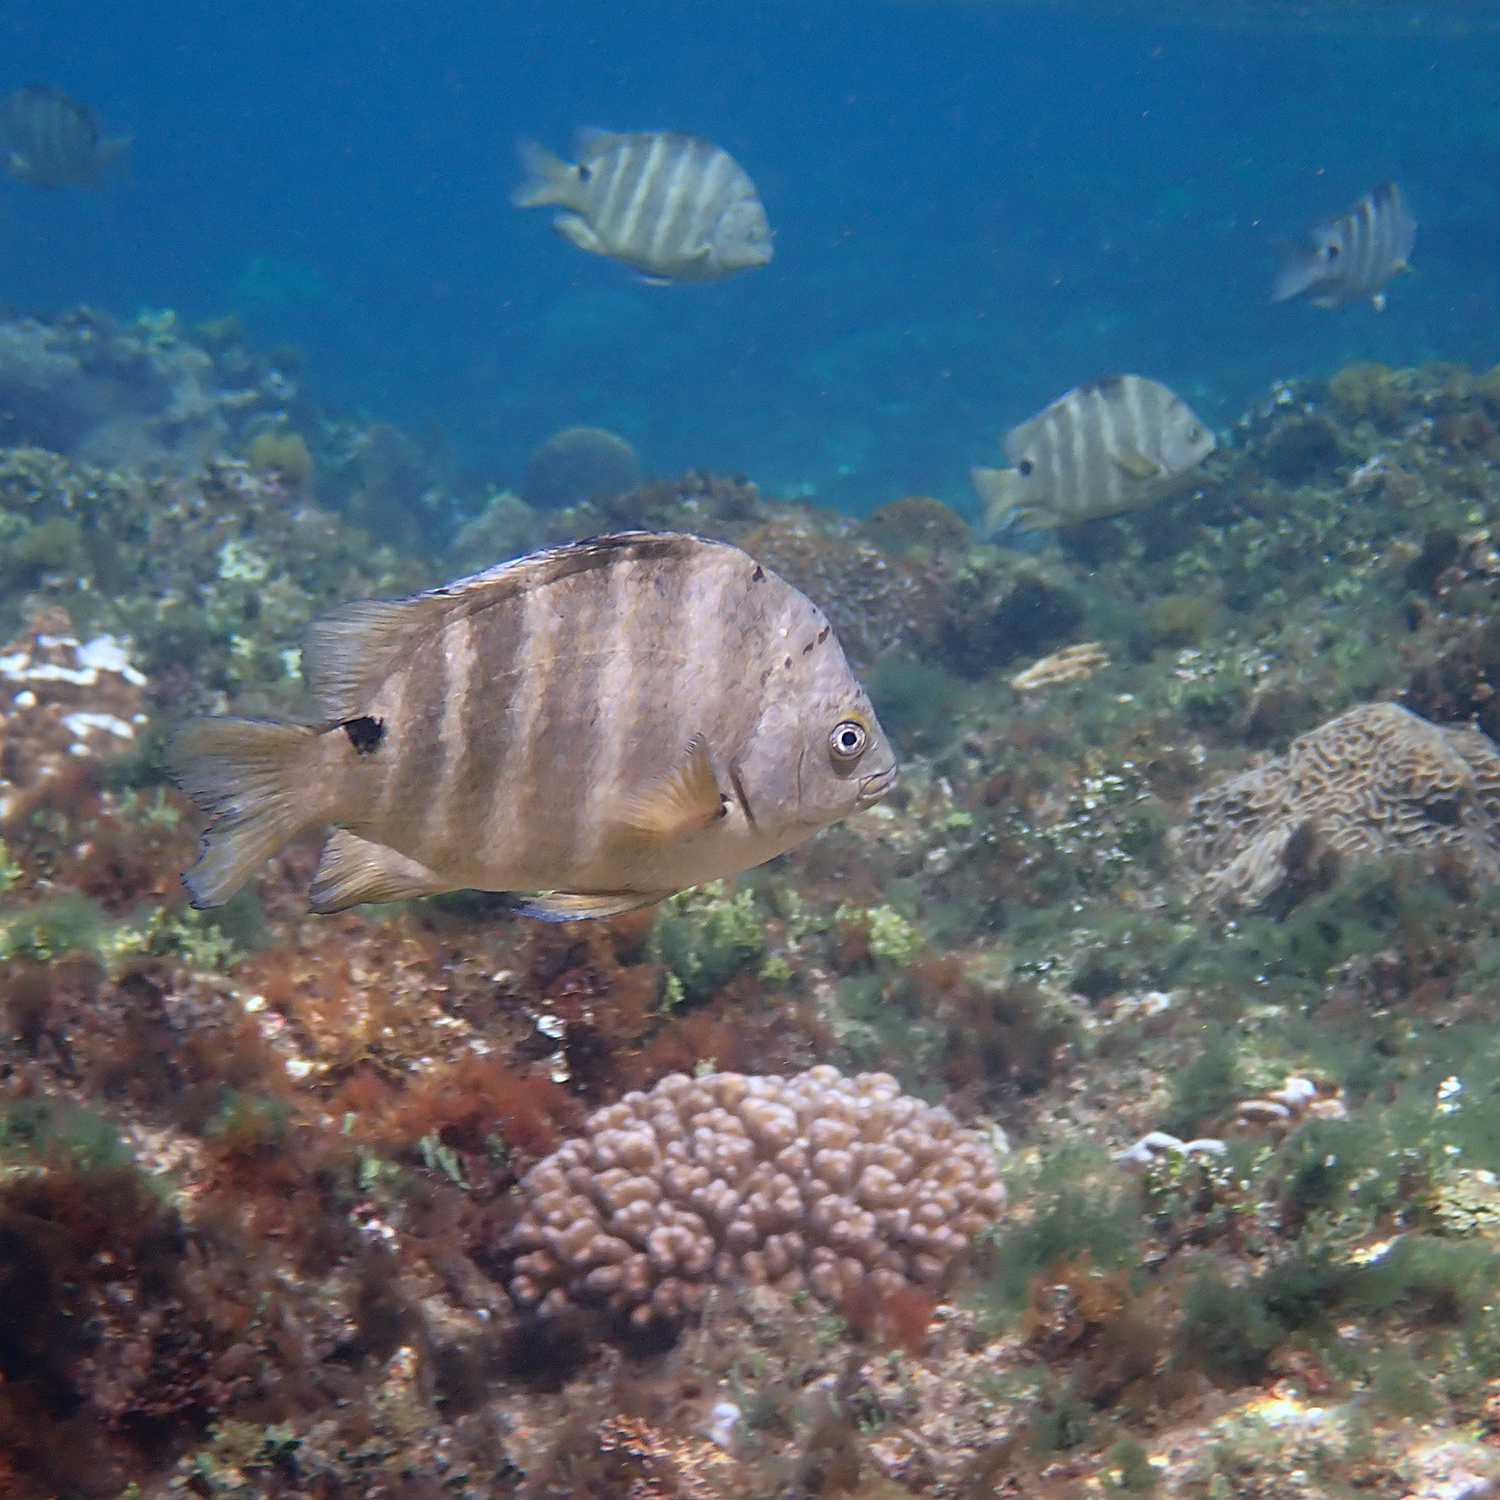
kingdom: Animalia
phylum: Chordata
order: Perciformes
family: Pomacentridae
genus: Abudefduf
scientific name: Abudefduf sordidus
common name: Blackspot sergeant
